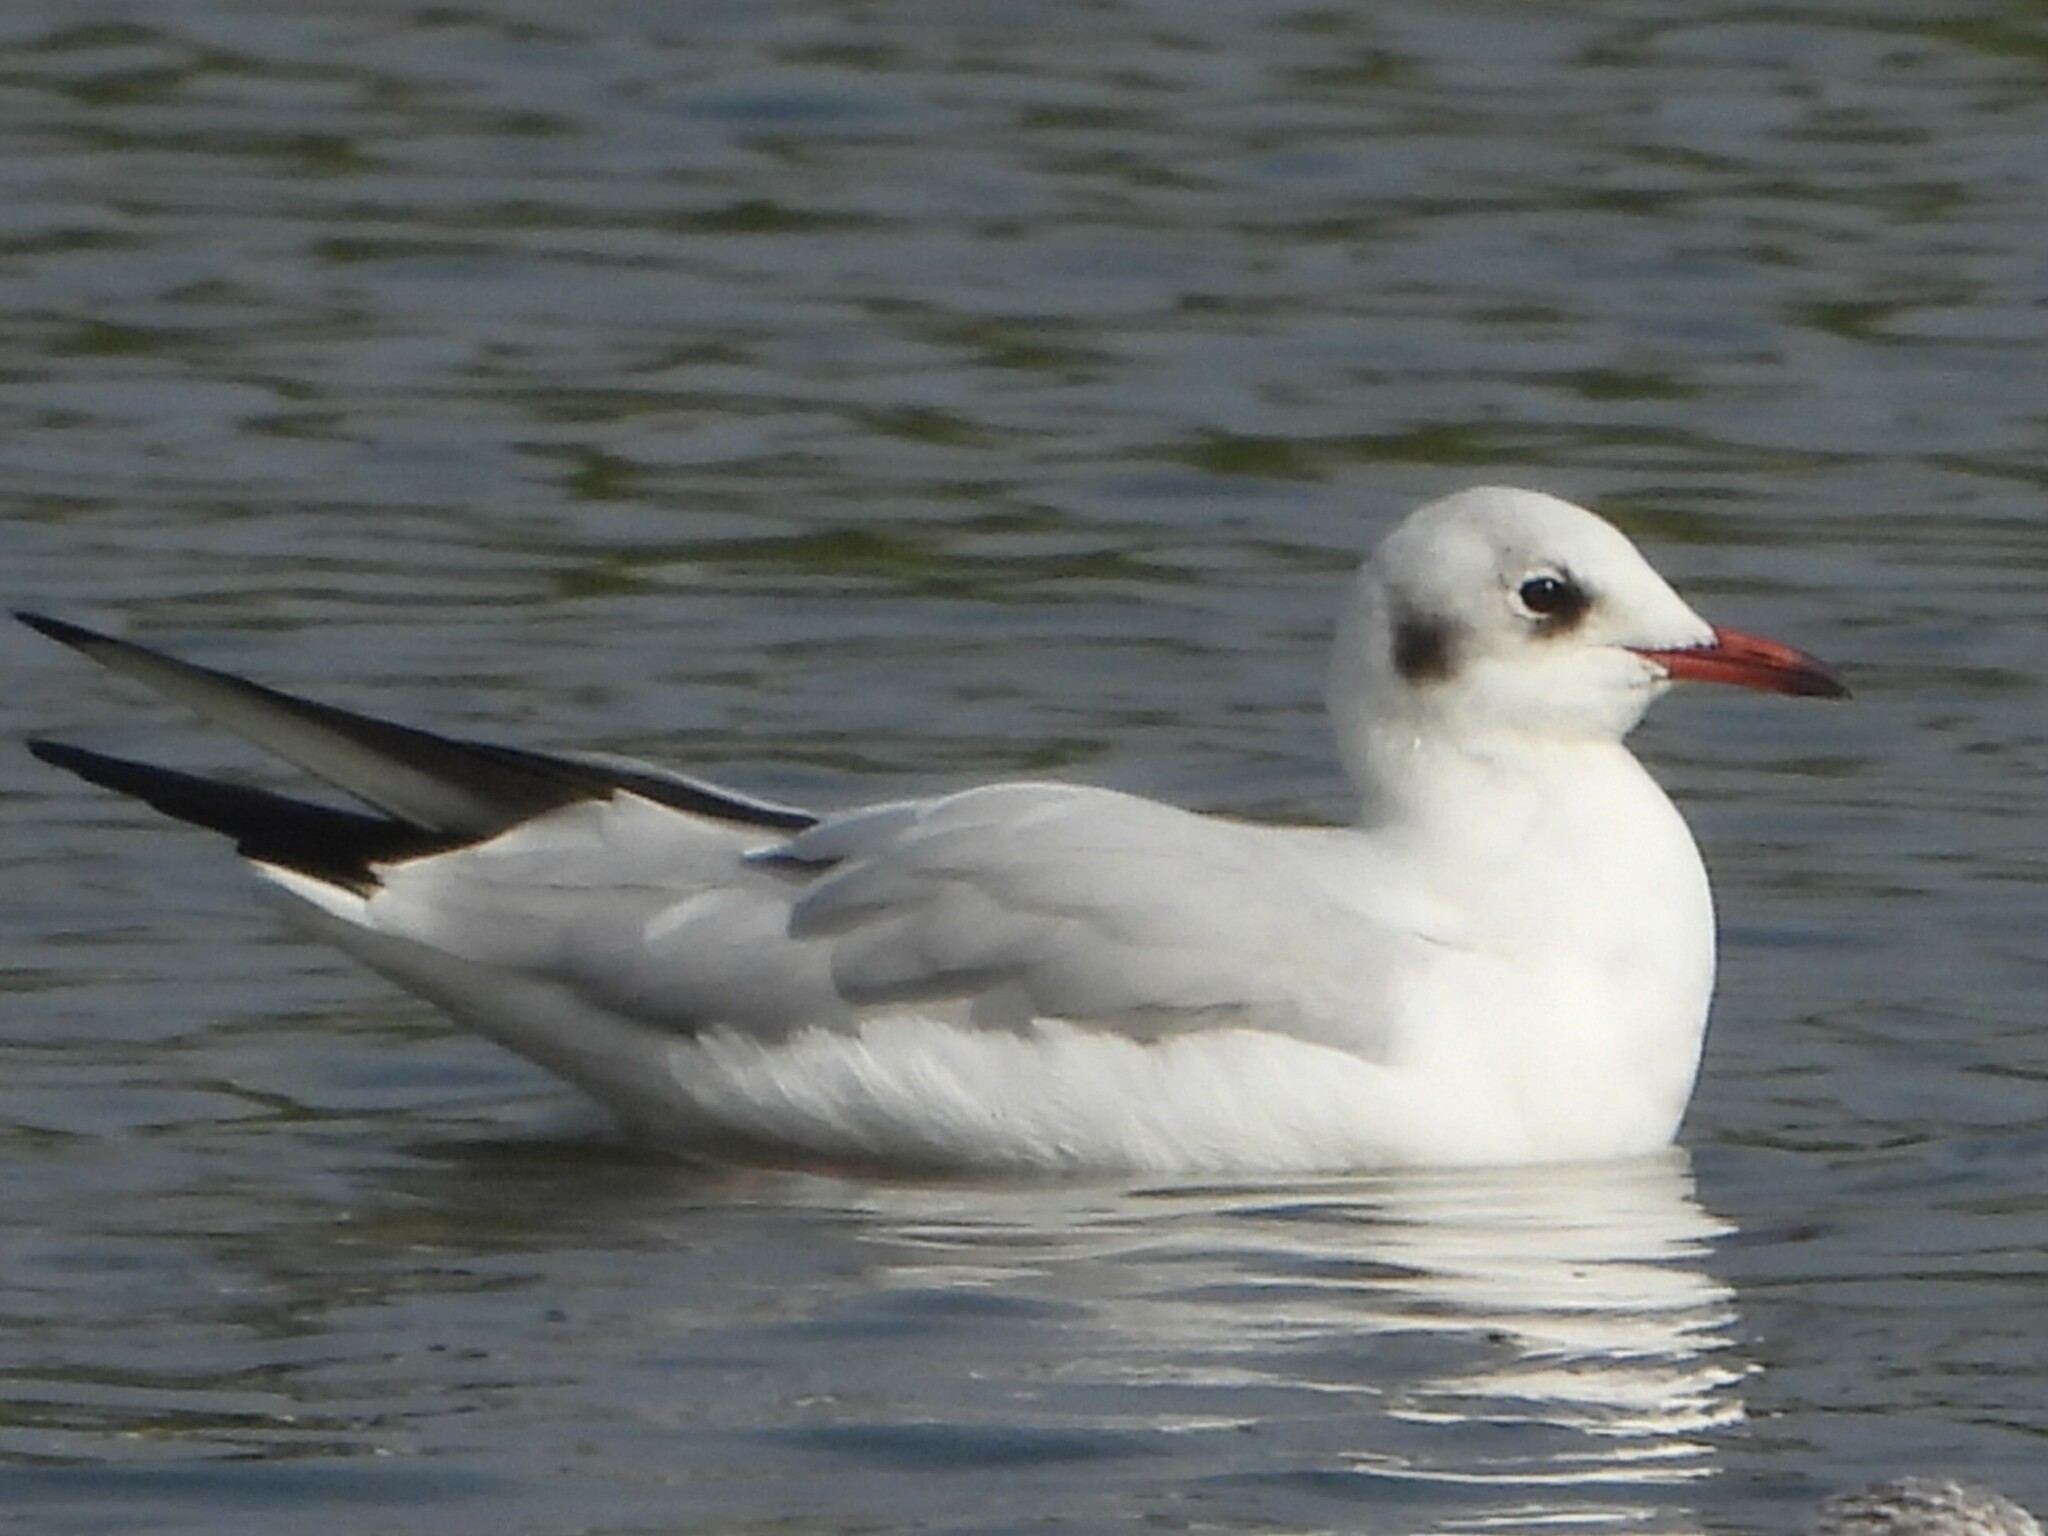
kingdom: Animalia
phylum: Chordata
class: Aves
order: Charadriiformes
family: Laridae
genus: Chroicocephalus
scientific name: Chroicocephalus ridibundus
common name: Black-headed gull
